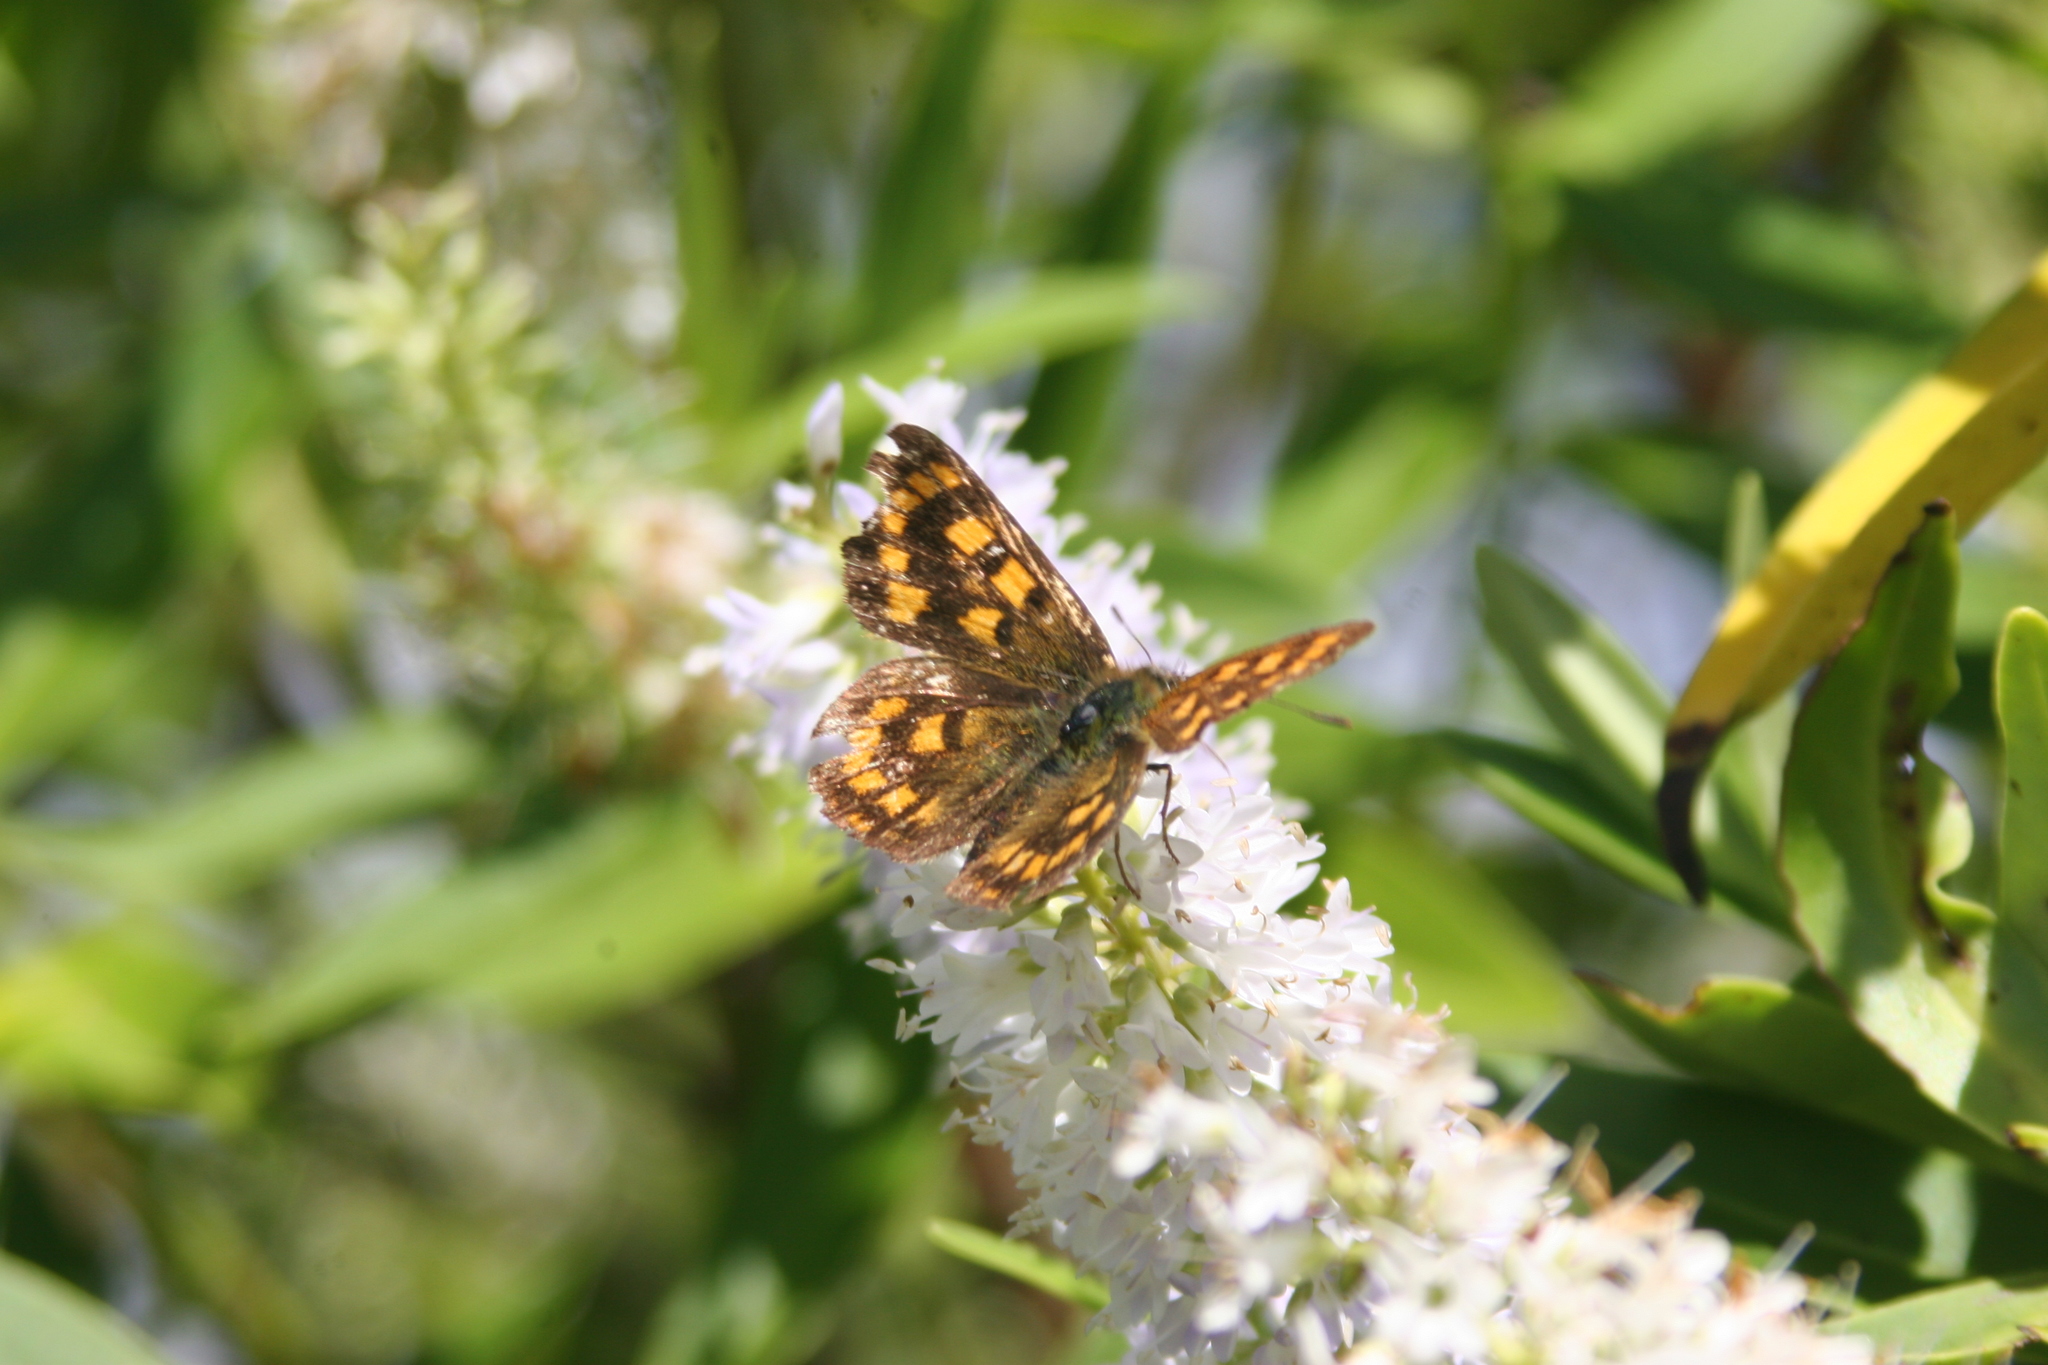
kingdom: Animalia
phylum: Arthropoda
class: Insecta
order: Lepidoptera
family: Lycaenidae
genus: Lycaena
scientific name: Lycaena
